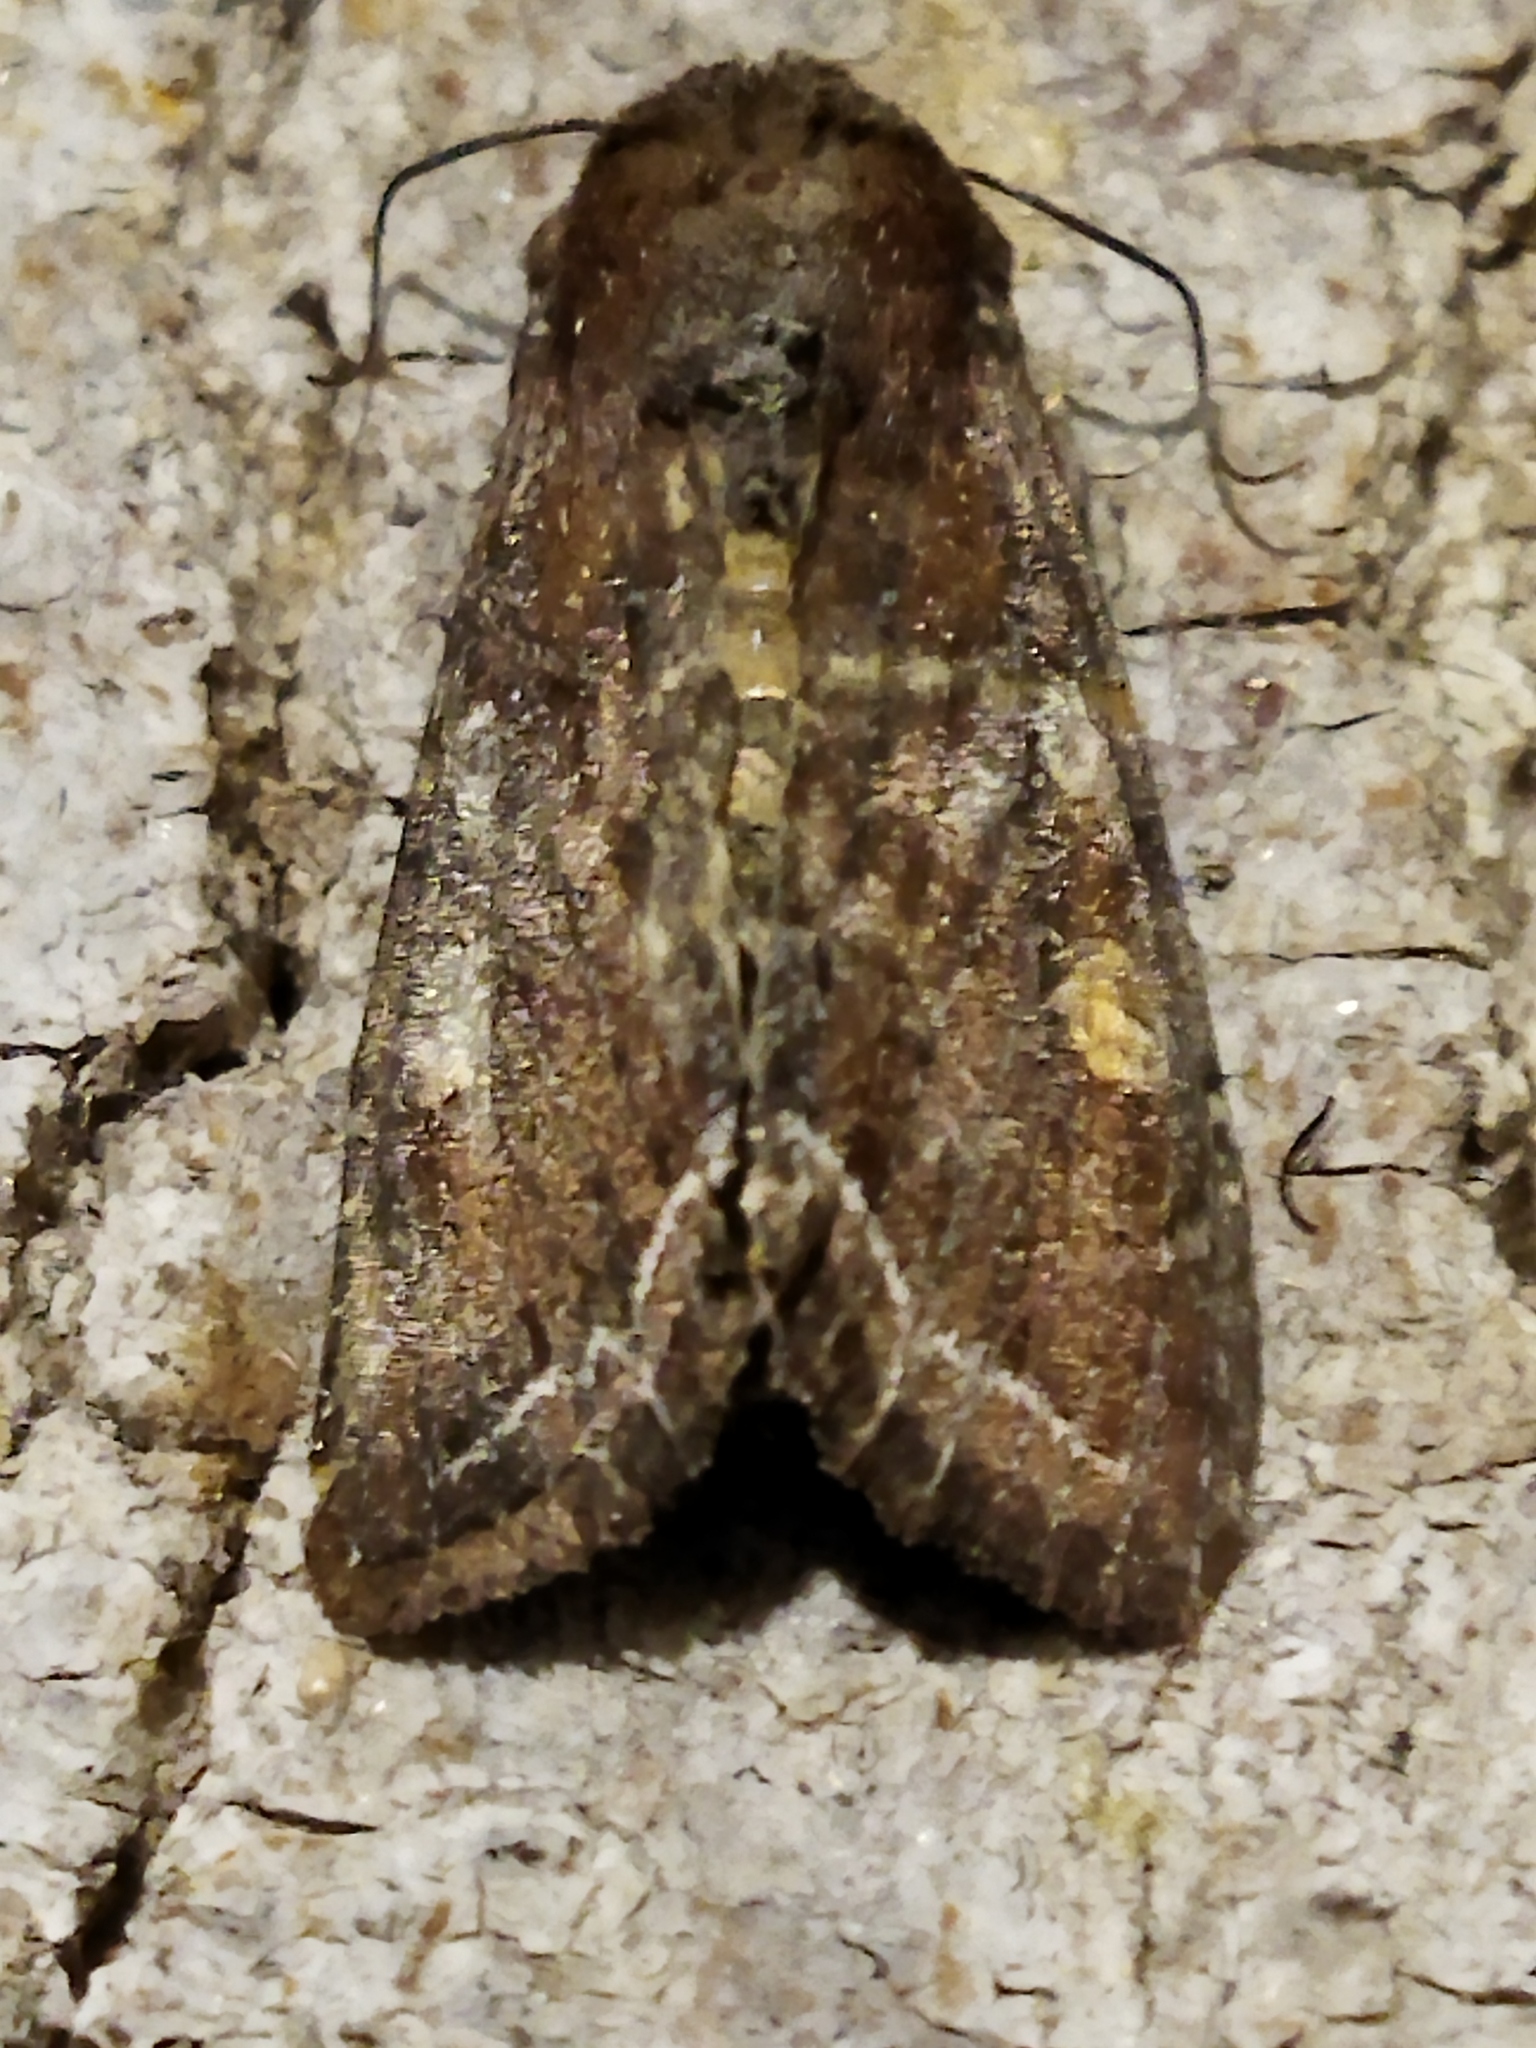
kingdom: Animalia
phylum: Arthropoda
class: Insecta
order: Lepidoptera
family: Noctuidae
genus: Lacanobia
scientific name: Lacanobia oleracea
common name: Bright-line brown-eye
